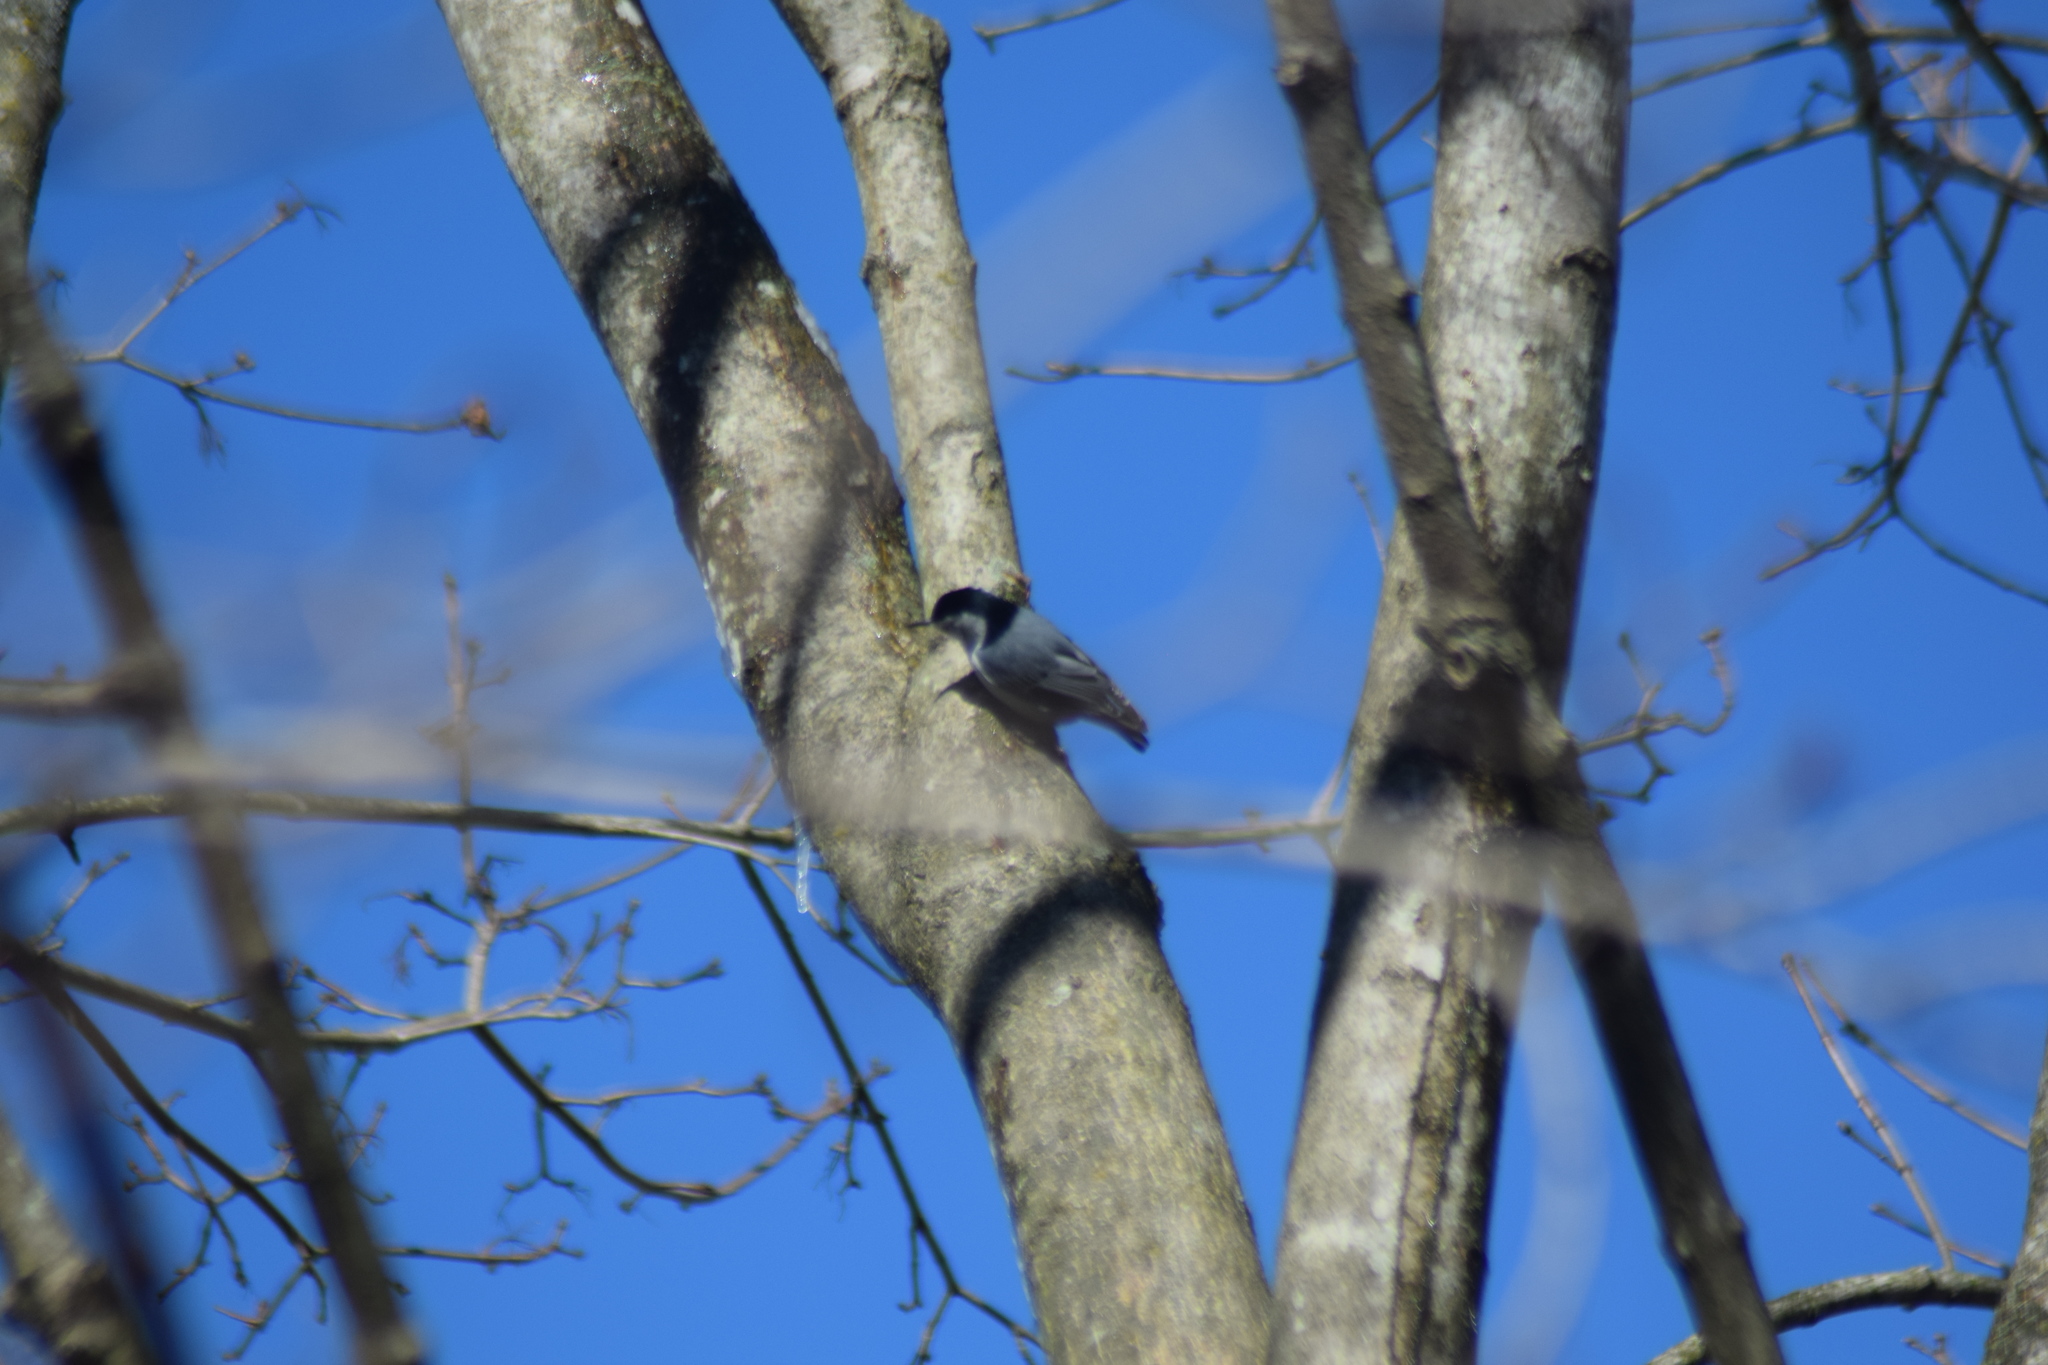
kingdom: Animalia
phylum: Chordata
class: Aves
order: Passeriformes
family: Sittidae
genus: Sitta
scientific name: Sitta carolinensis
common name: White-breasted nuthatch
